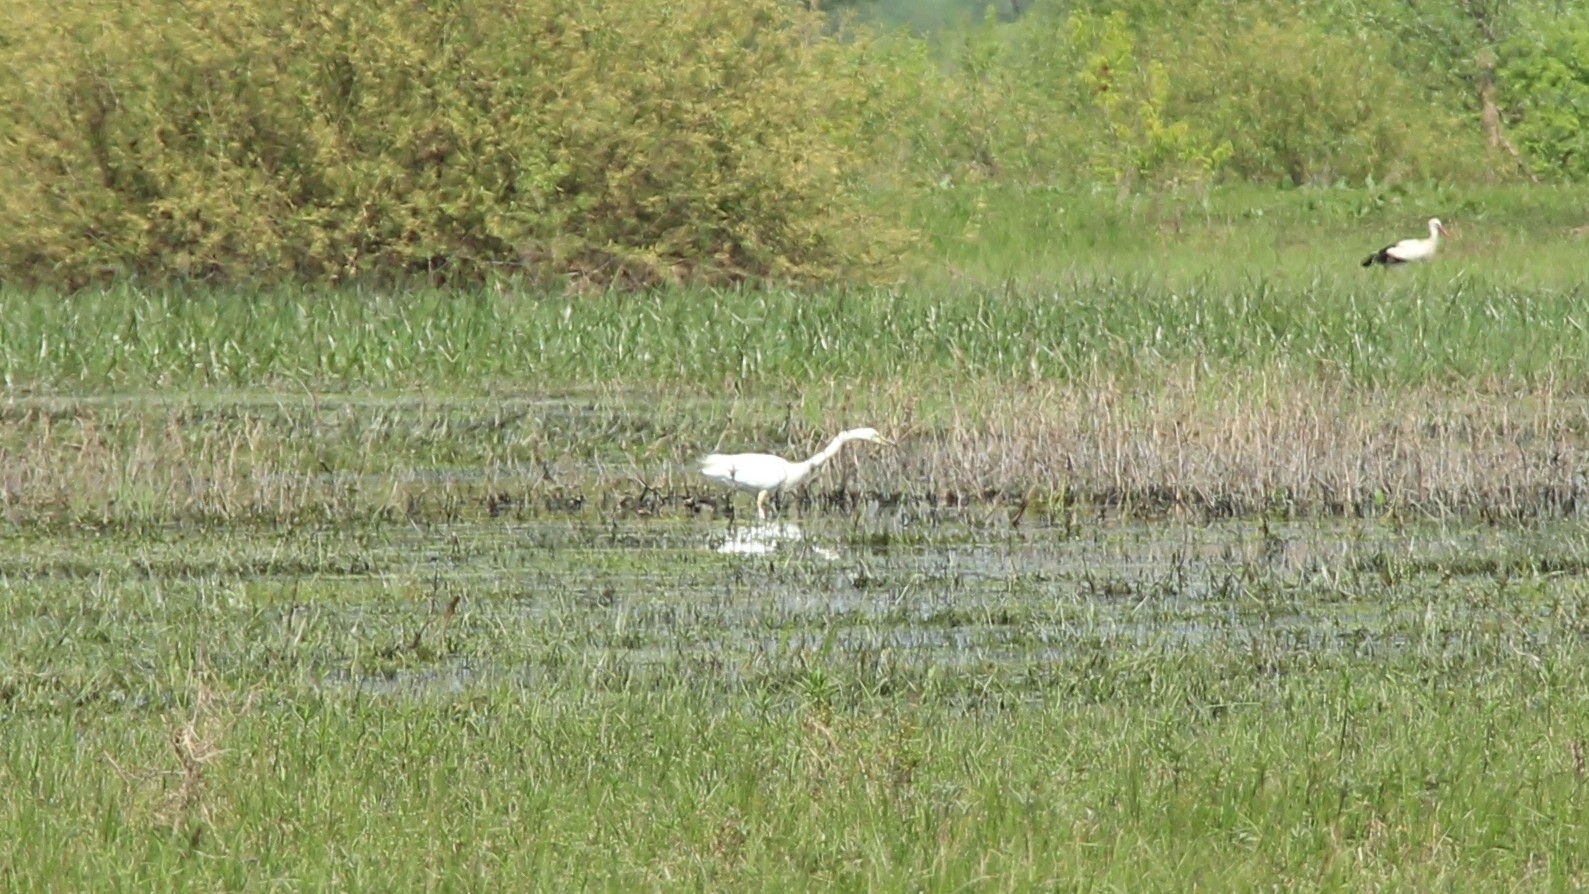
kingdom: Animalia
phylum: Chordata
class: Aves
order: Pelecaniformes
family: Ardeidae
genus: Ardea
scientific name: Ardea alba
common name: Great egret
